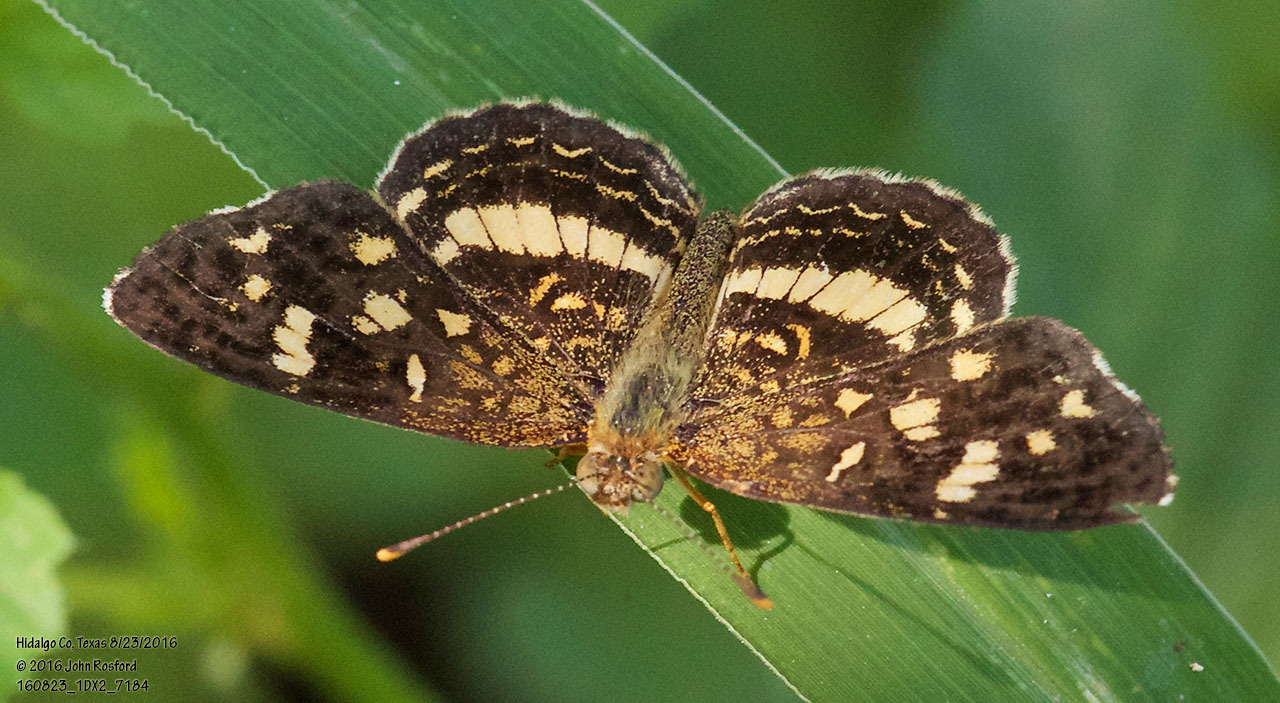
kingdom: Animalia
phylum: Arthropoda
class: Insecta
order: Lepidoptera
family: Nymphalidae
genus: Anthanassa
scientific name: Anthanassa tulcis
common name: Pale-banded crescent
